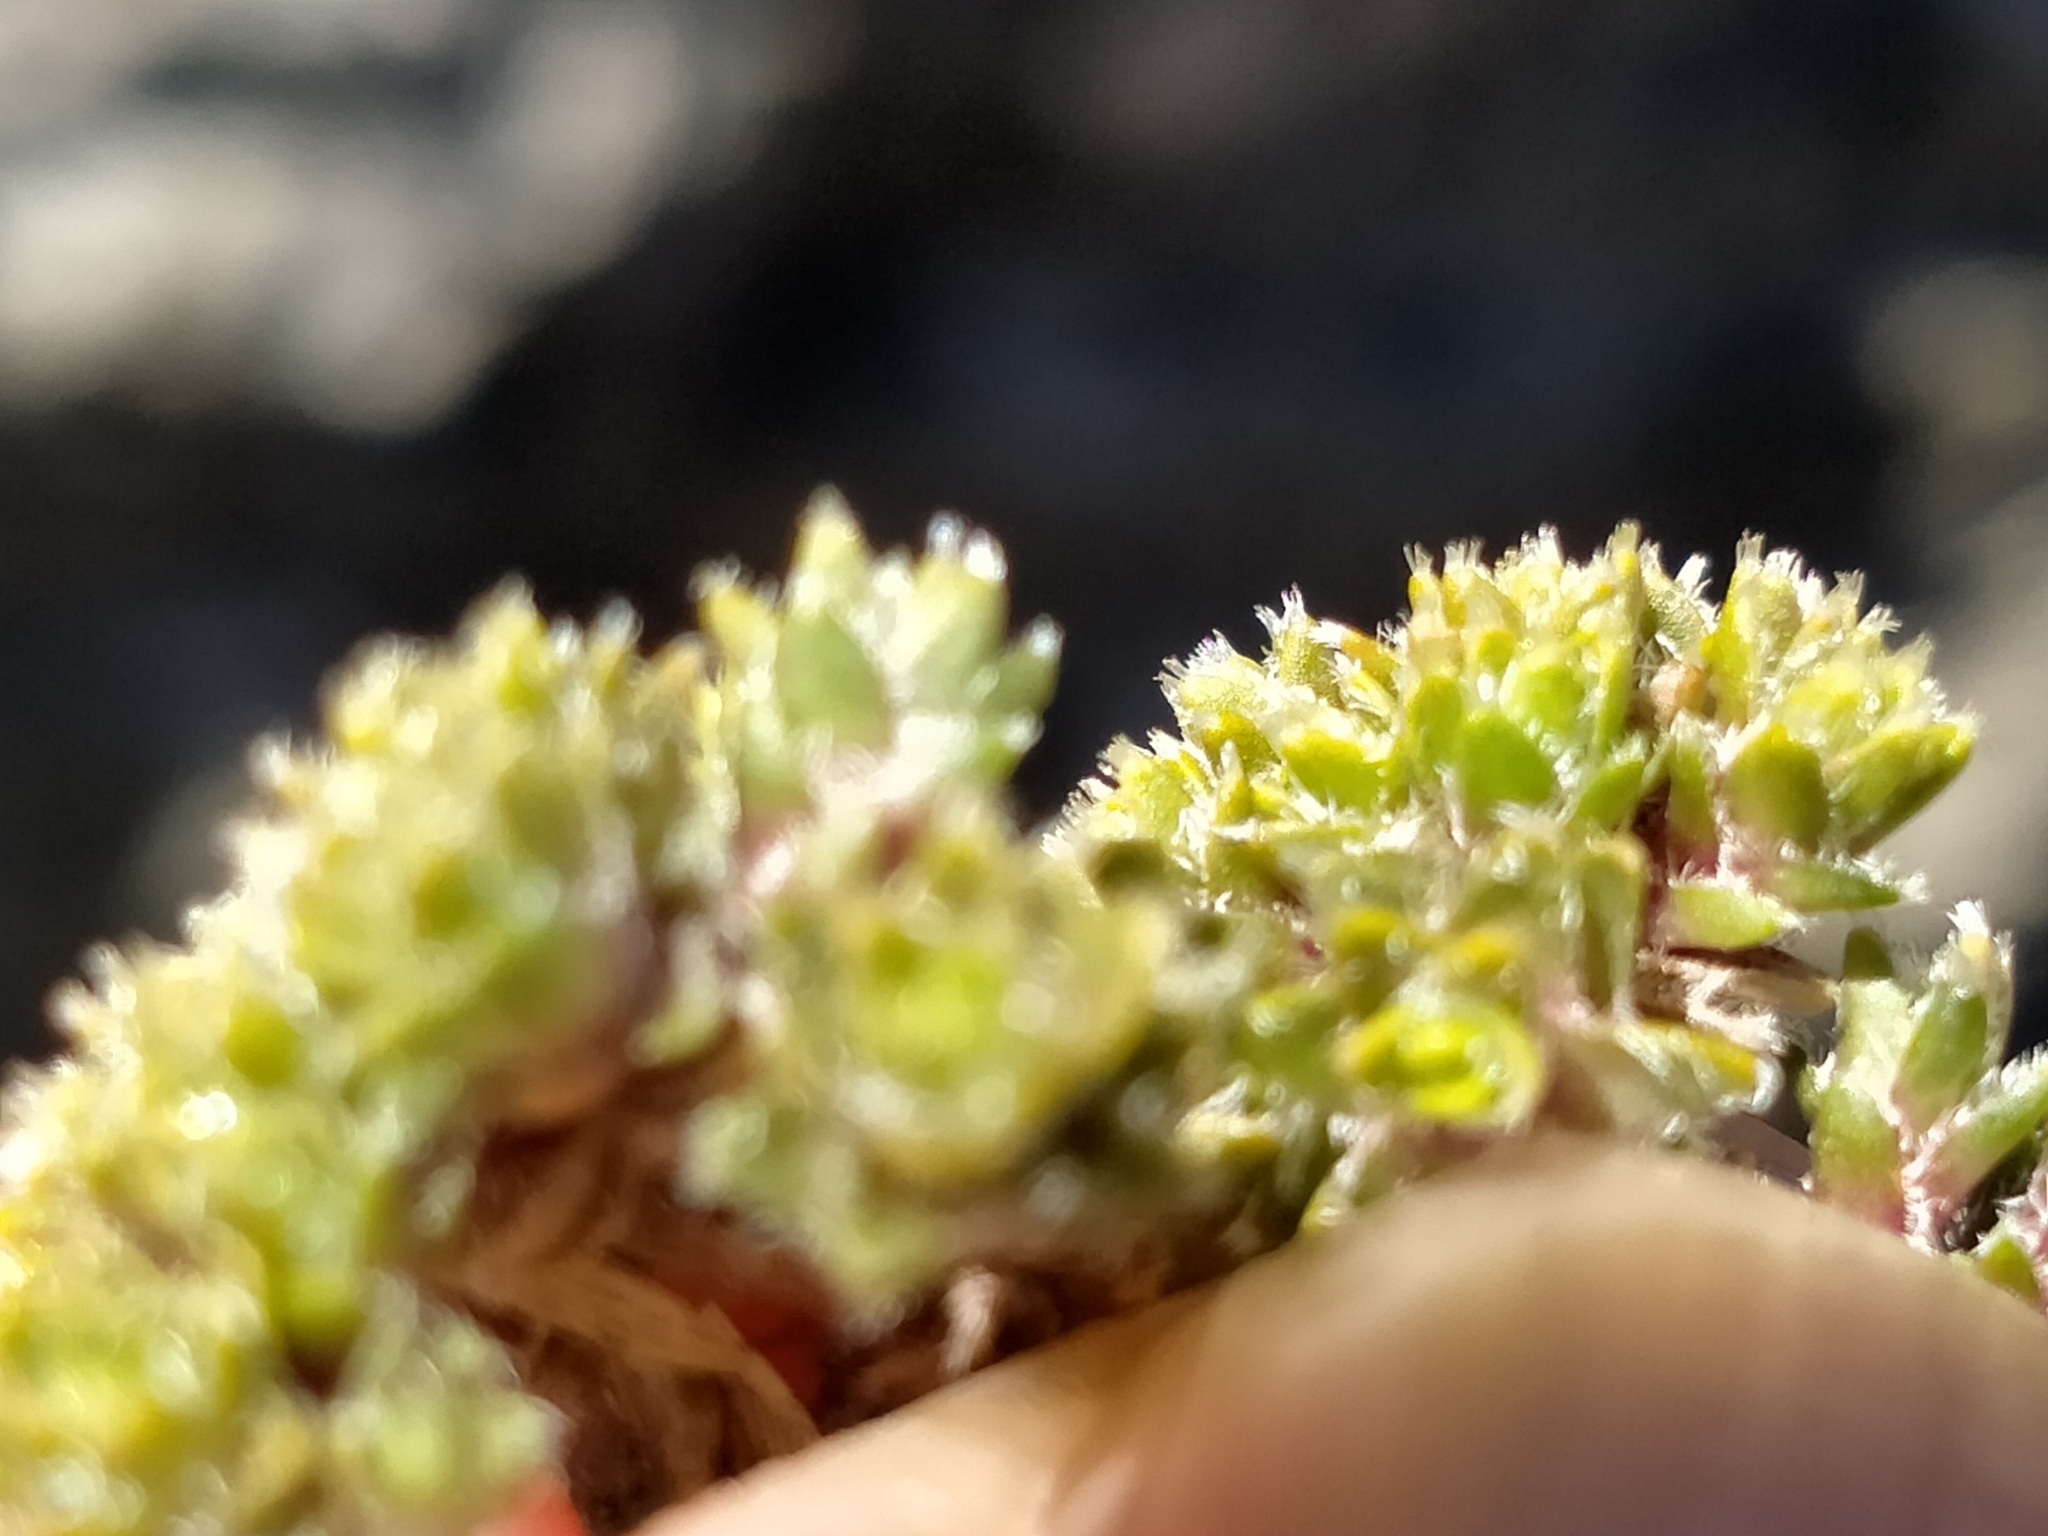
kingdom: Plantae
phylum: Tracheophyta
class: Magnoliopsida
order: Lamiales
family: Plantaginaceae
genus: Veronica
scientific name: Veronica ciliolata
